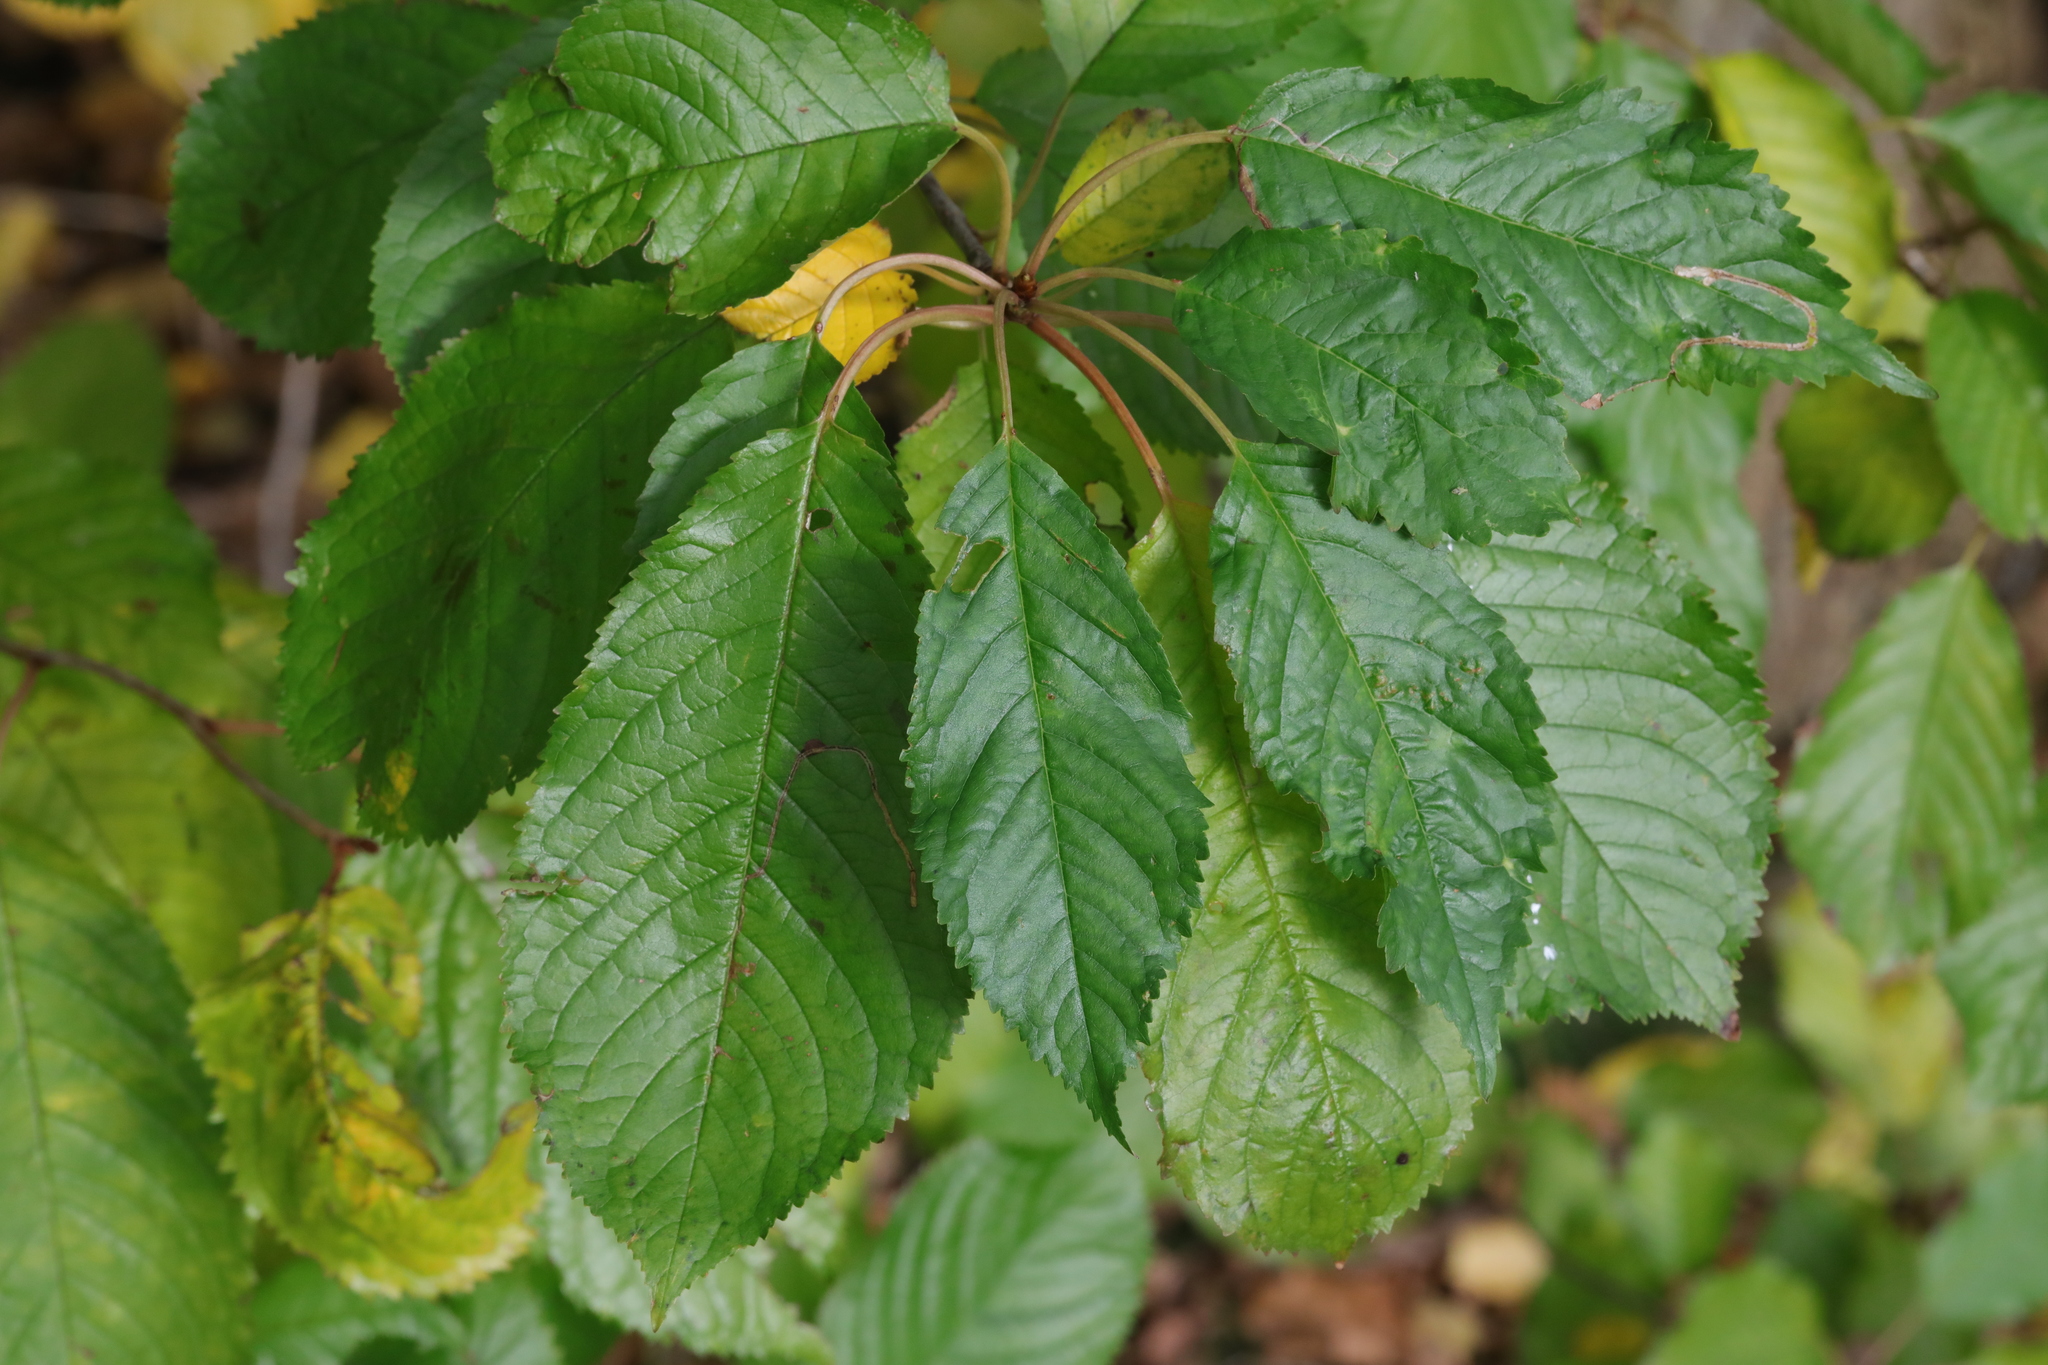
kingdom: Plantae
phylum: Tracheophyta
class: Magnoliopsida
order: Rosales
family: Rosaceae
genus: Prunus
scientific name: Prunus avium
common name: Sweet cherry
